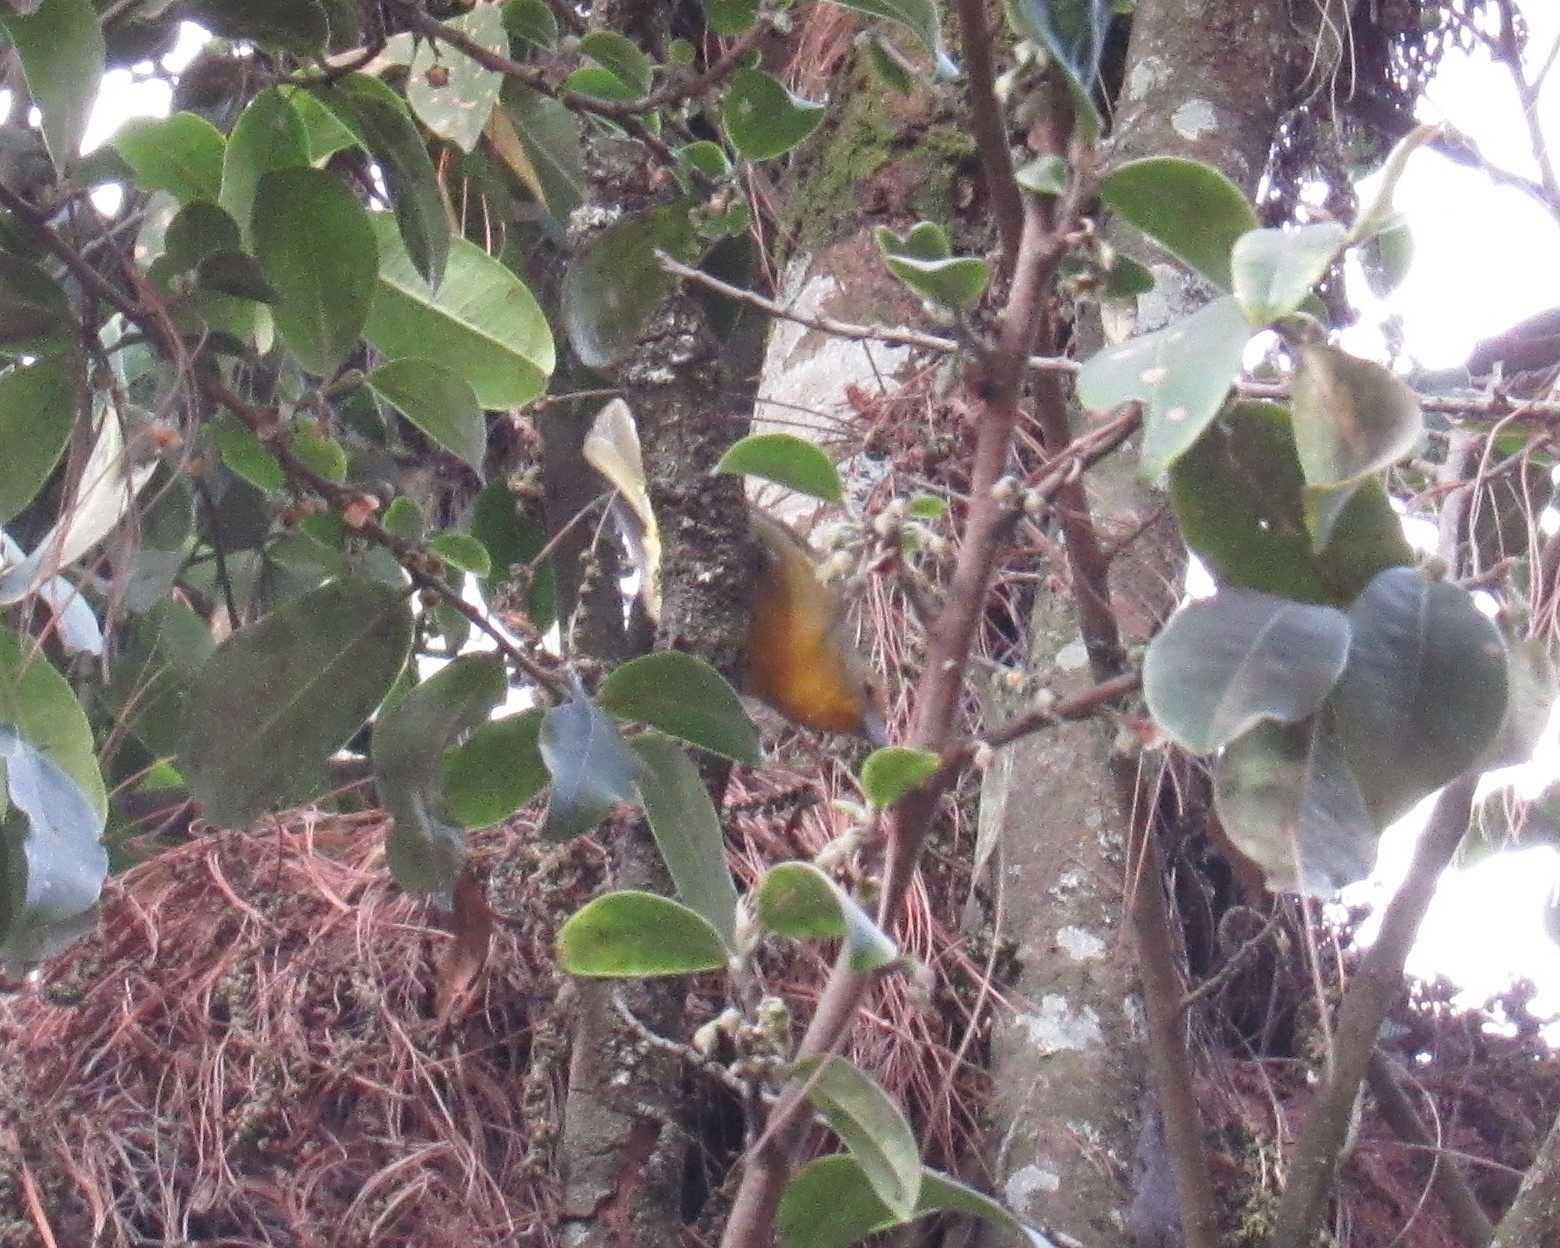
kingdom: Animalia
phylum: Chordata
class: Aves
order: Passeriformes
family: Cardinalidae
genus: Piranga
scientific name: Piranga flava
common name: Red tanager
